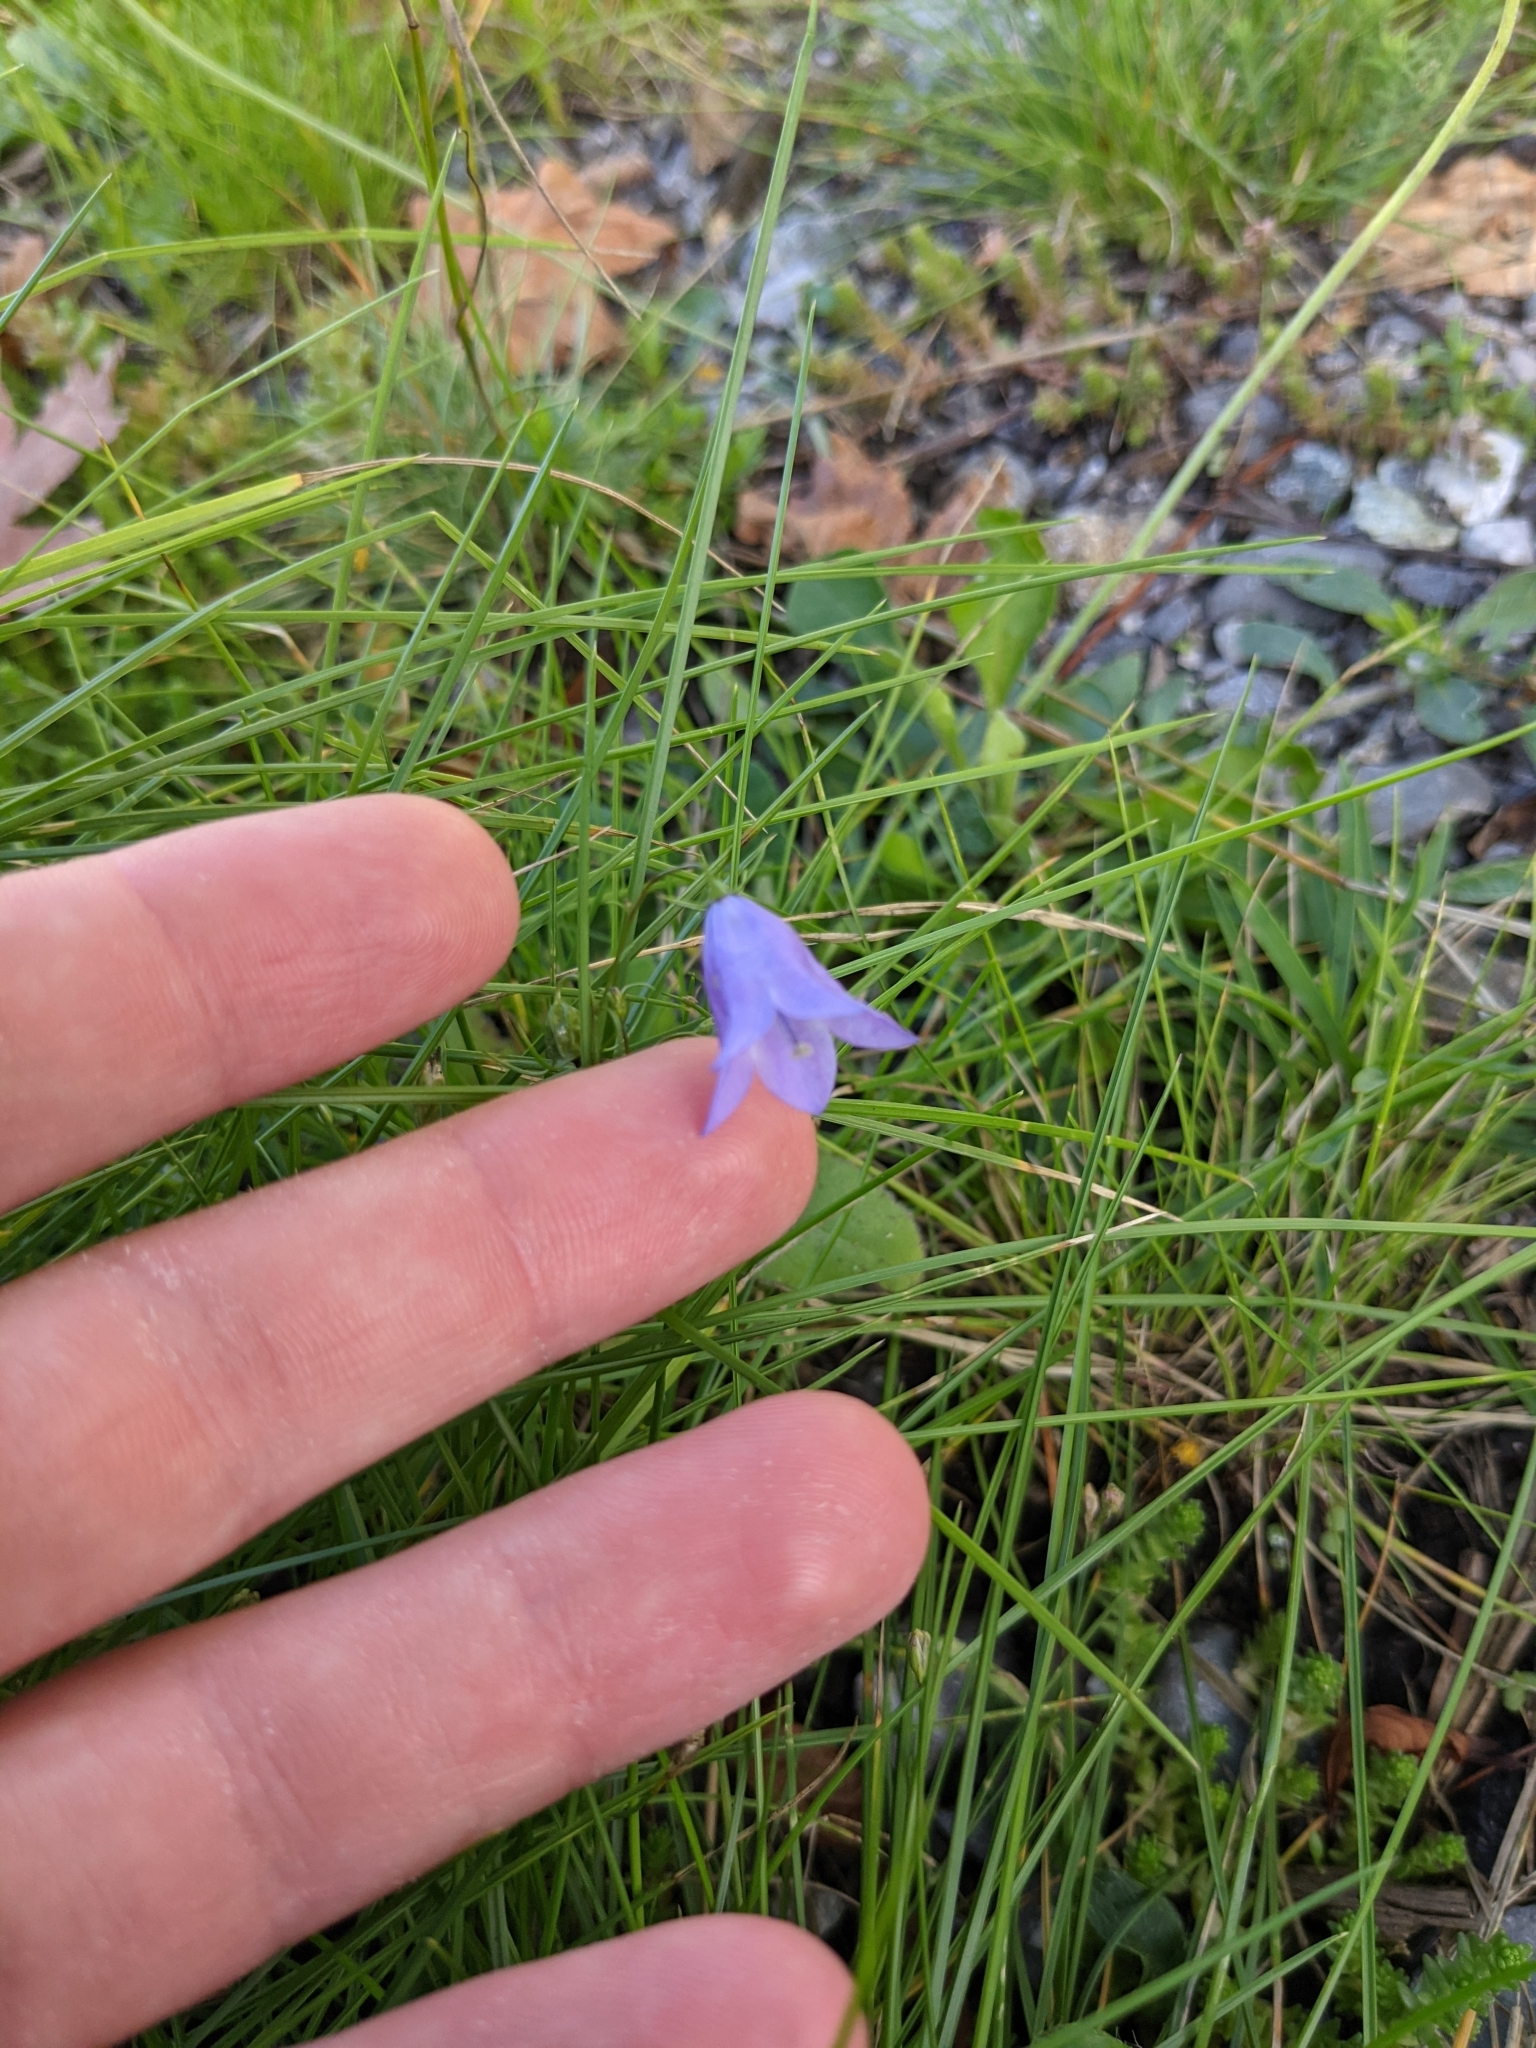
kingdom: Plantae
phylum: Tracheophyta
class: Magnoliopsida
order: Asterales
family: Campanulaceae
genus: Campanula
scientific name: Campanula rotundifolia
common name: Harebell
